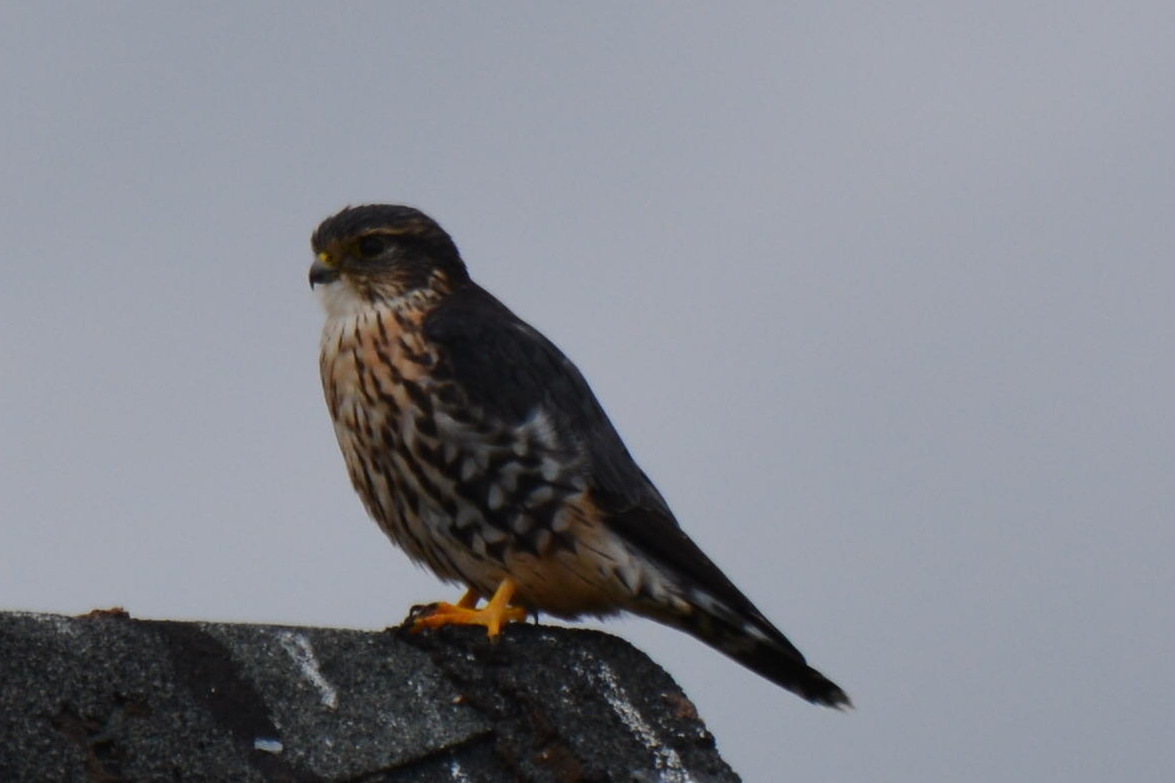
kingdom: Animalia
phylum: Chordata
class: Aves
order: Falconiformes
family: Falconidae
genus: Falco
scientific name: Falco columbarius
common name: Merlin
